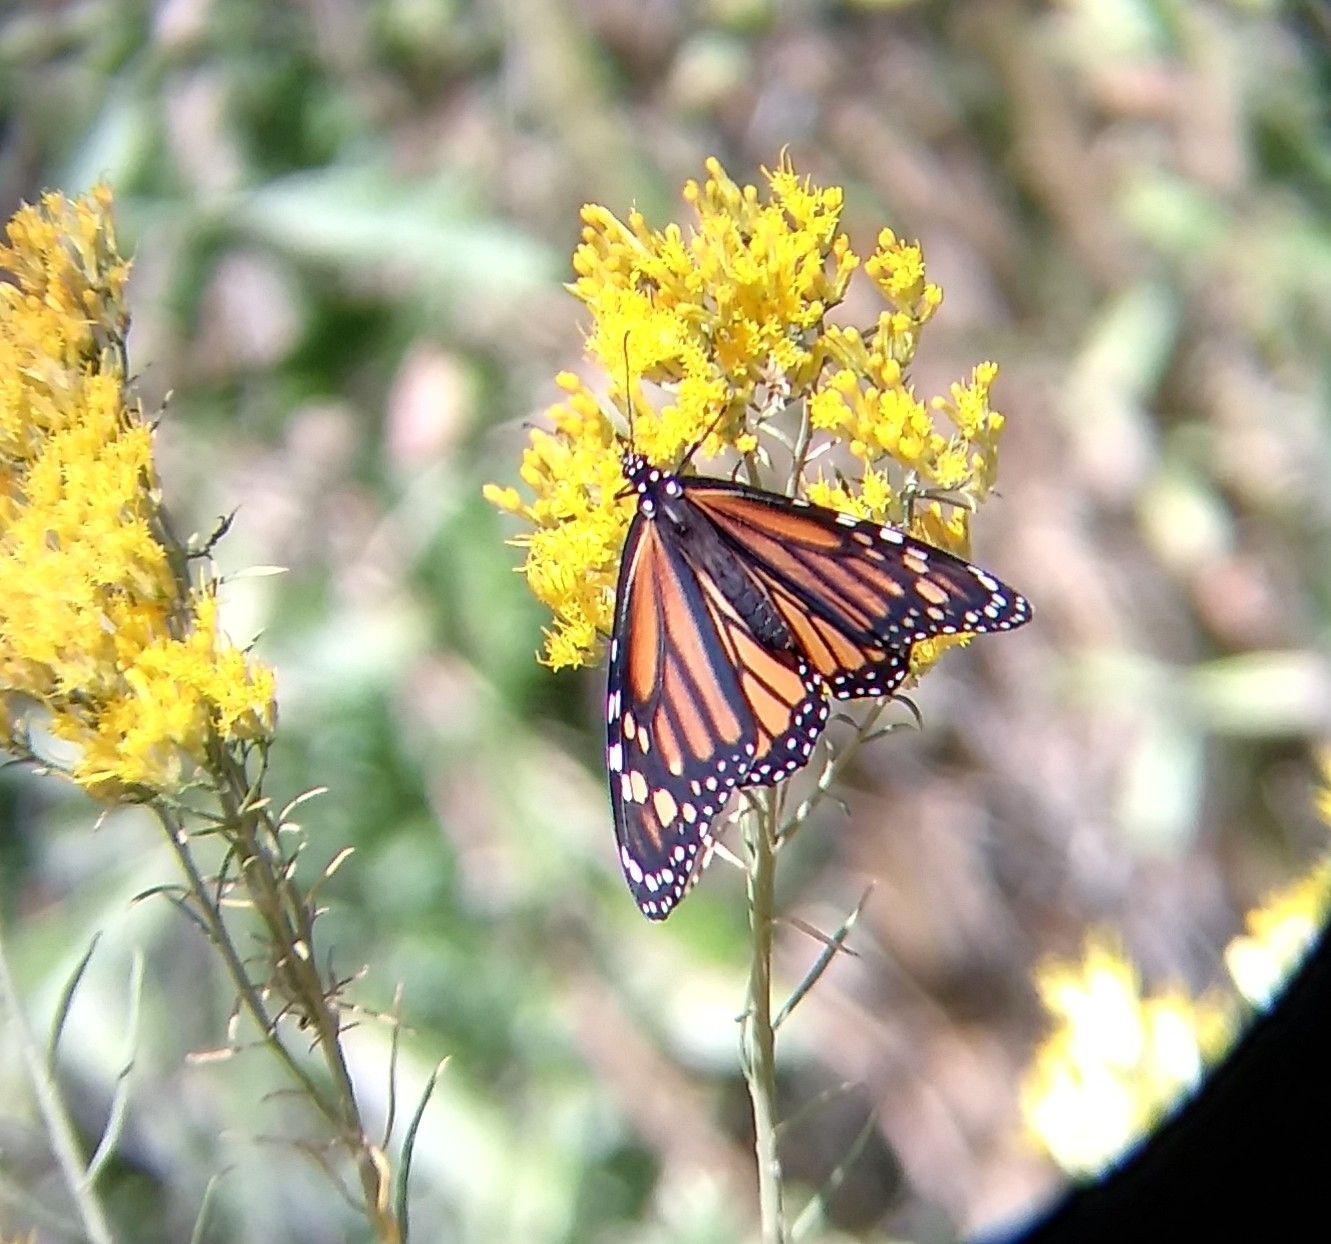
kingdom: Animalia
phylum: Arthropoda
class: Insecta
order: Lepidoptera
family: Nymphalidae
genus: Danaus
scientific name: Danaus plexippus
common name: Monarch
